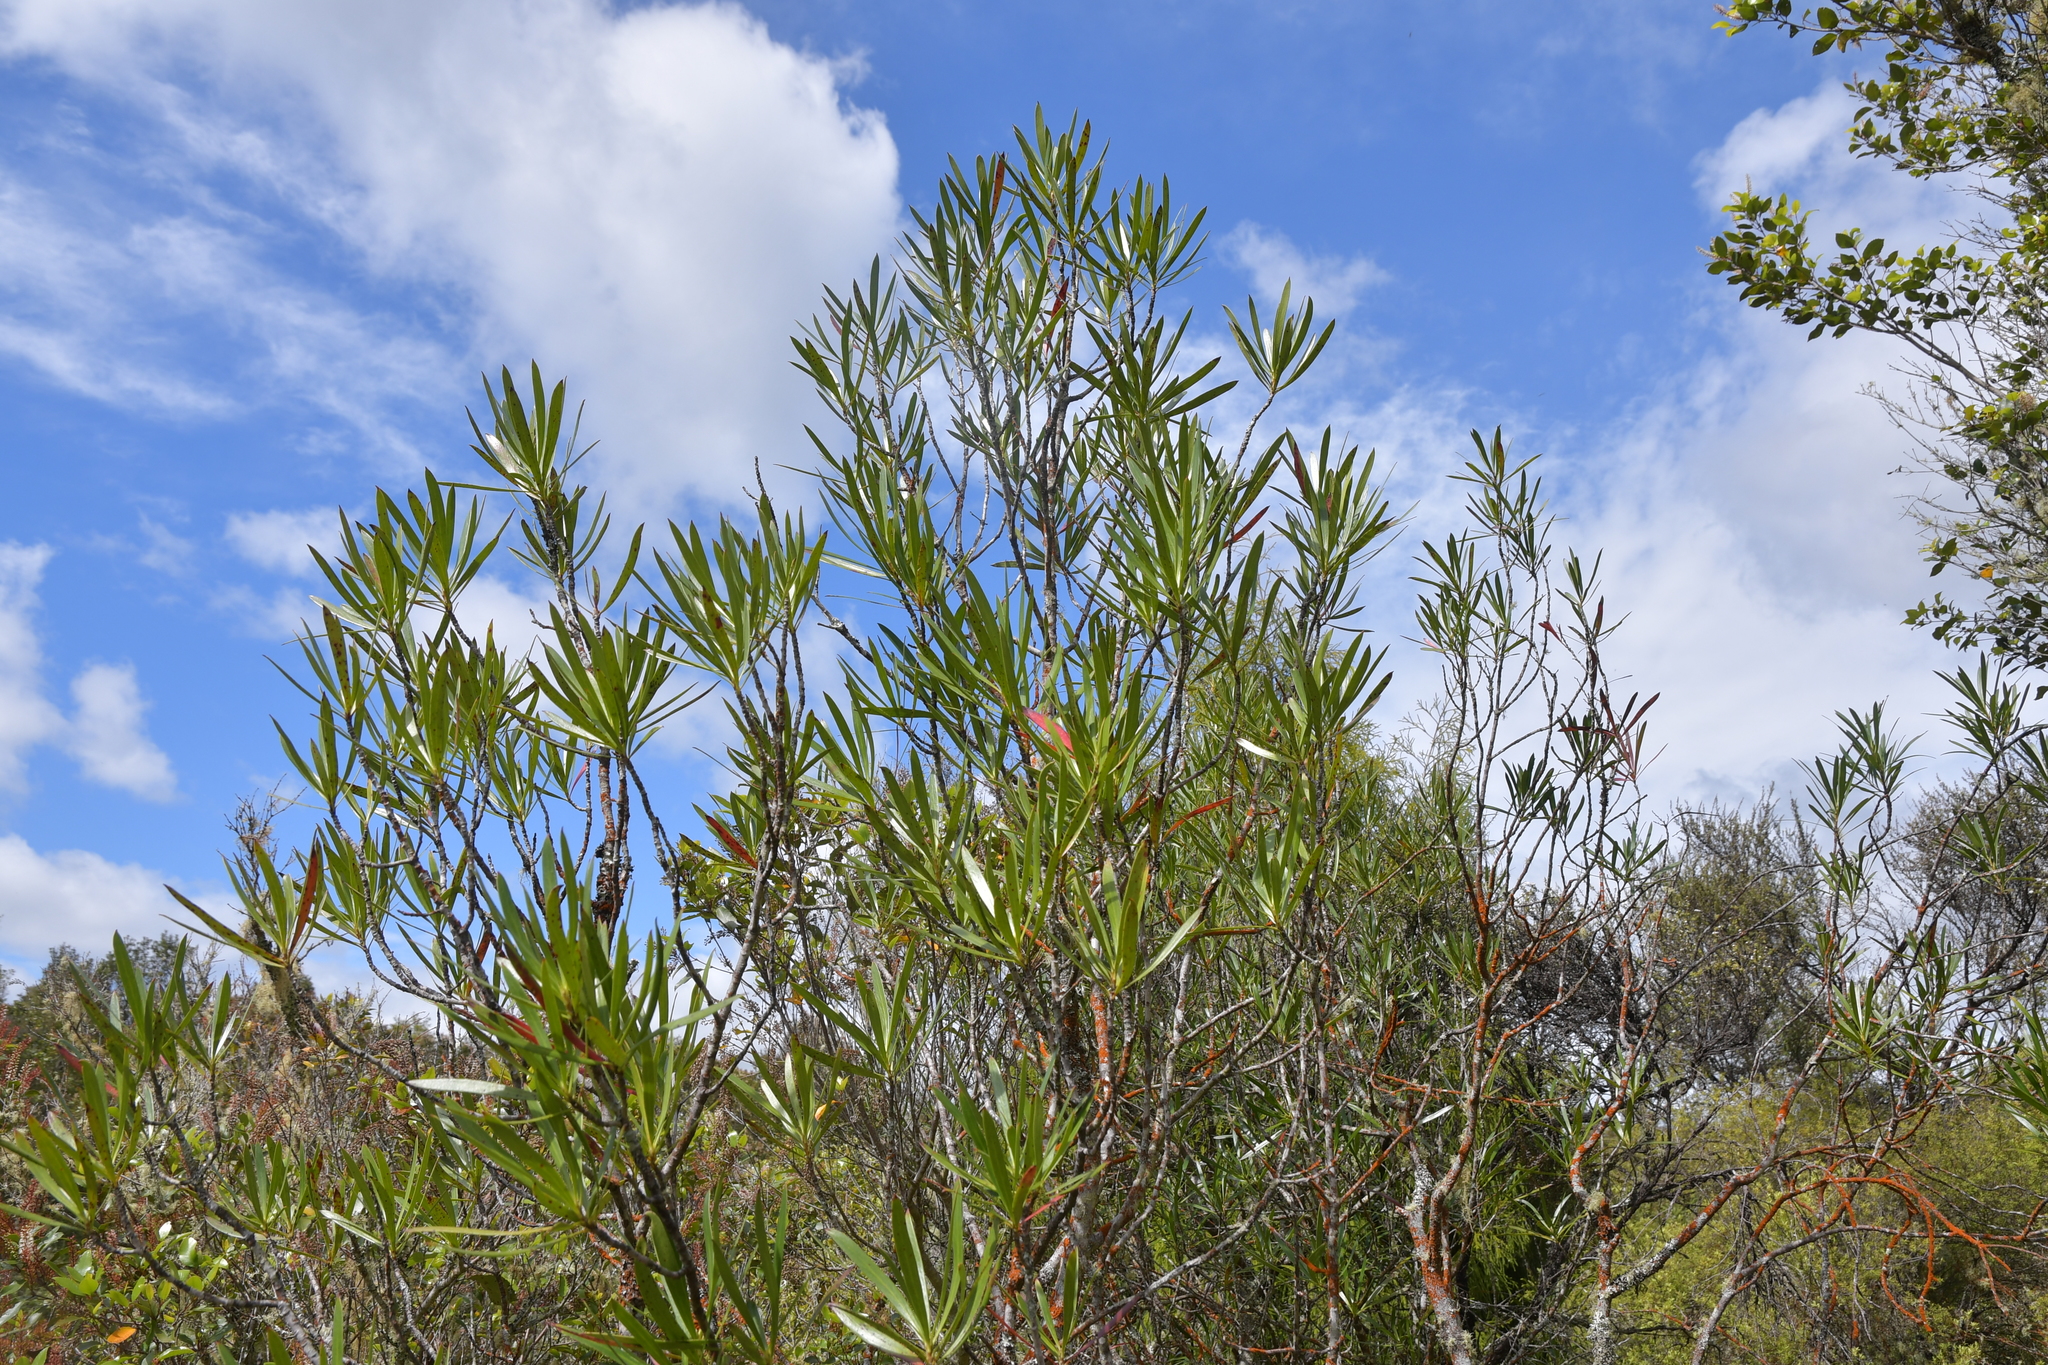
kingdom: Plantae
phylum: Tracheophyta
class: Magnoliopsida
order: Proteales
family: Proteaceae
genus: Toronia
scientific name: Toronia toru
